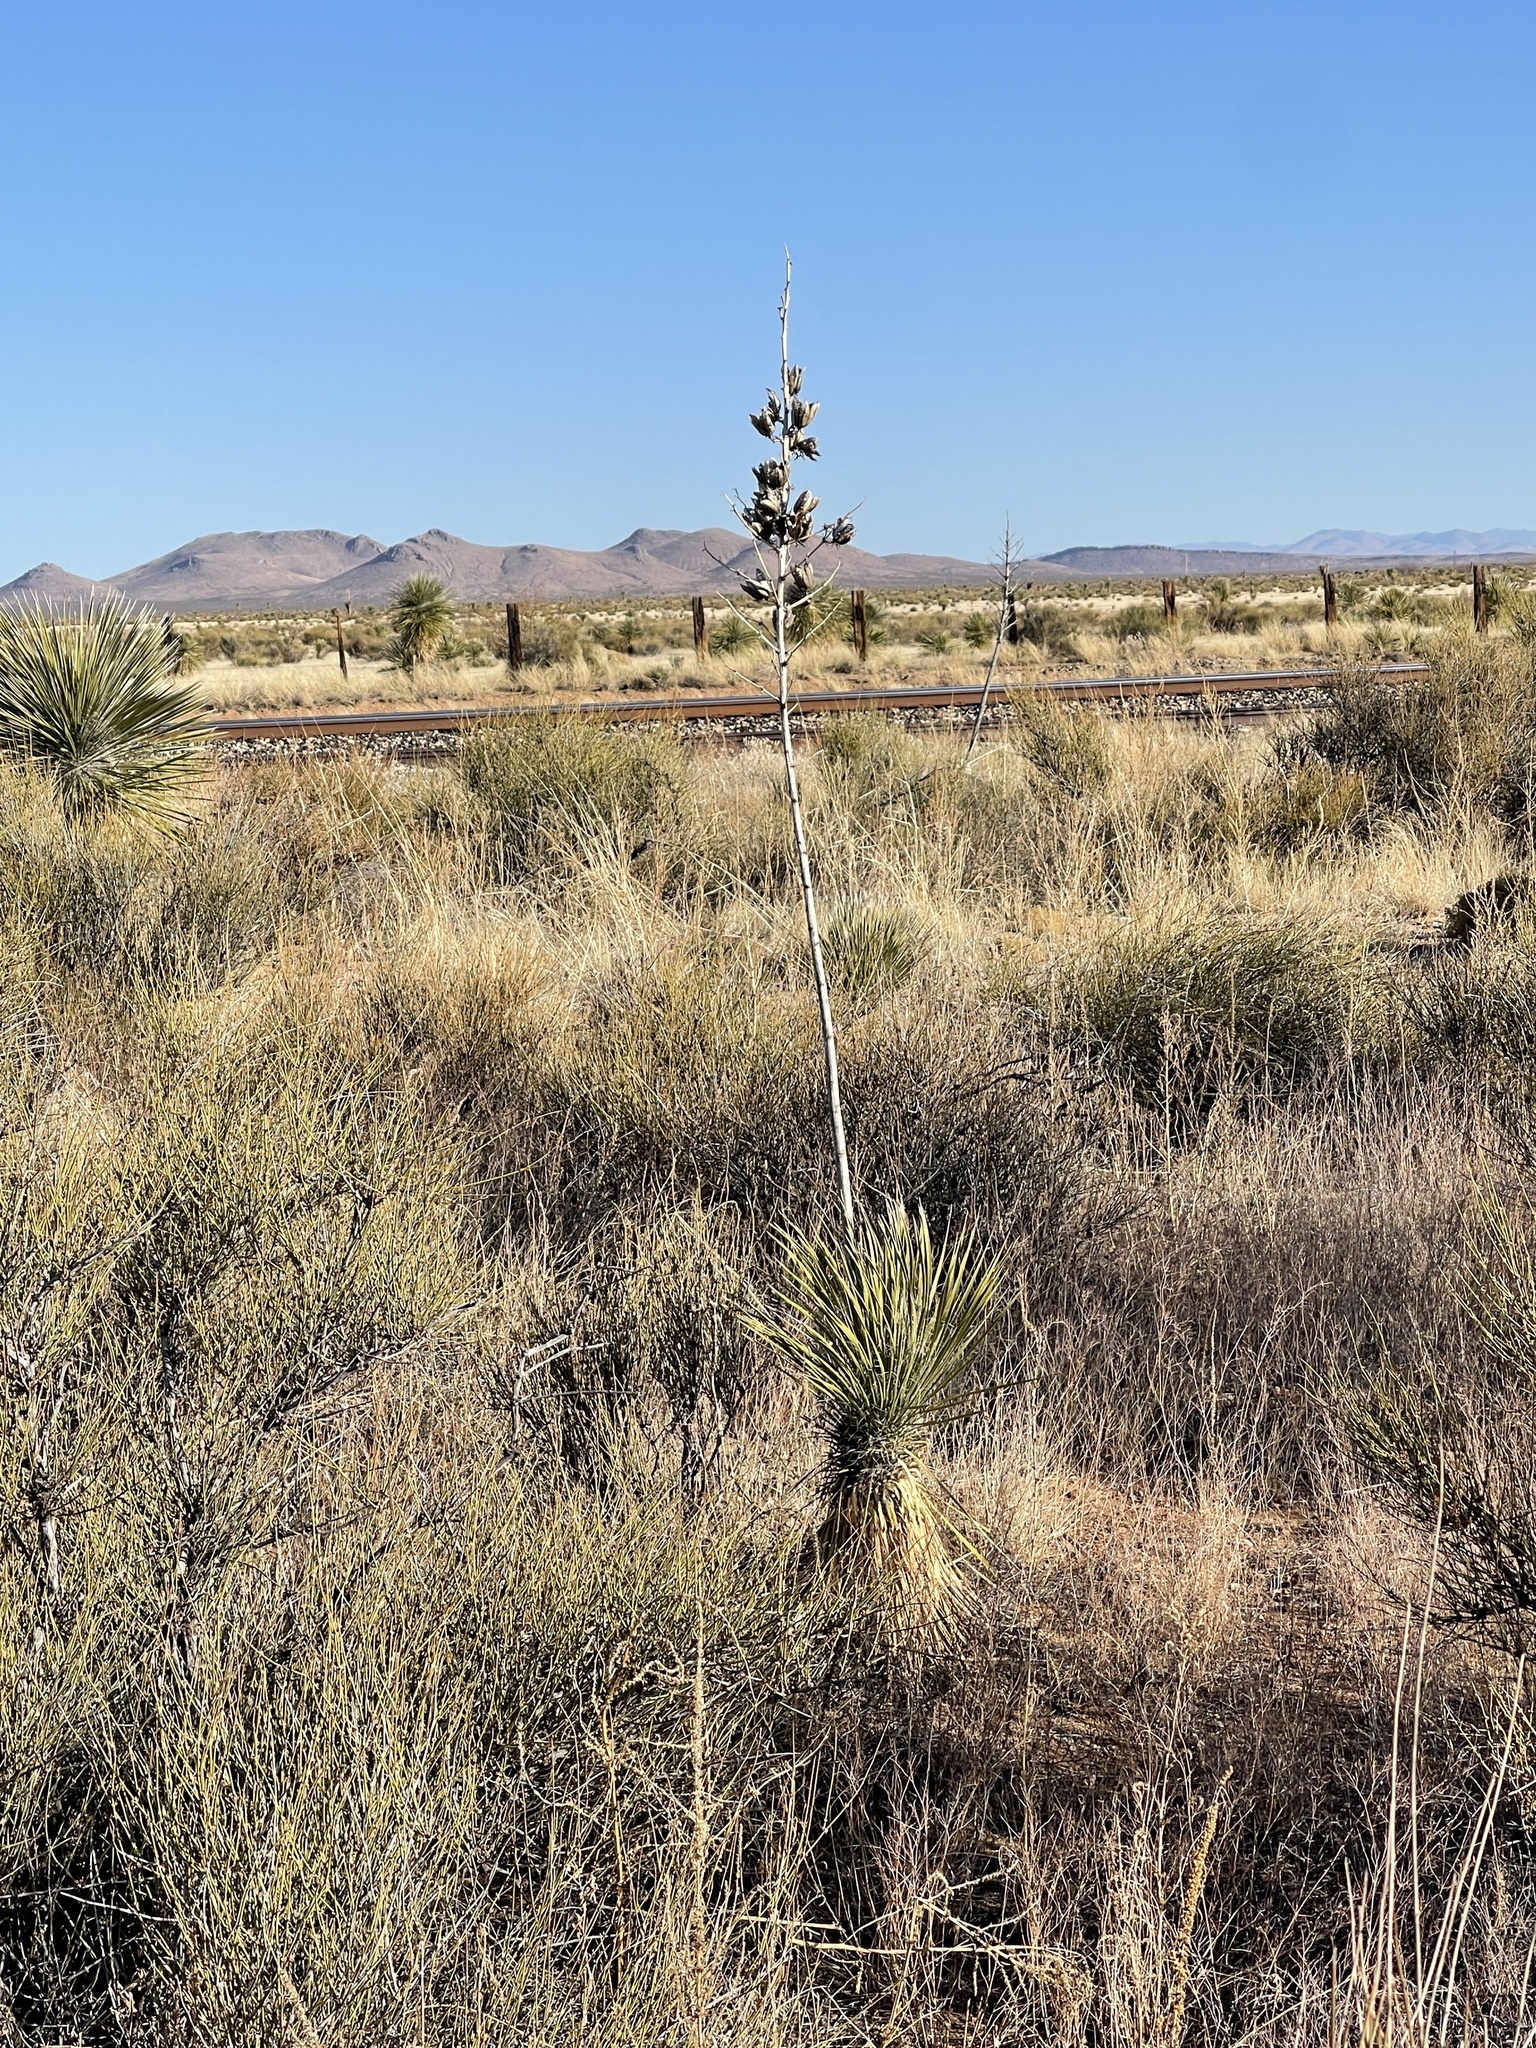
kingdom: Plantae
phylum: Tracheophyta
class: Liliopsida
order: Asparagales
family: Asparagaceae
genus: Yucca
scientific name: Yucca elata
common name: Palmella
